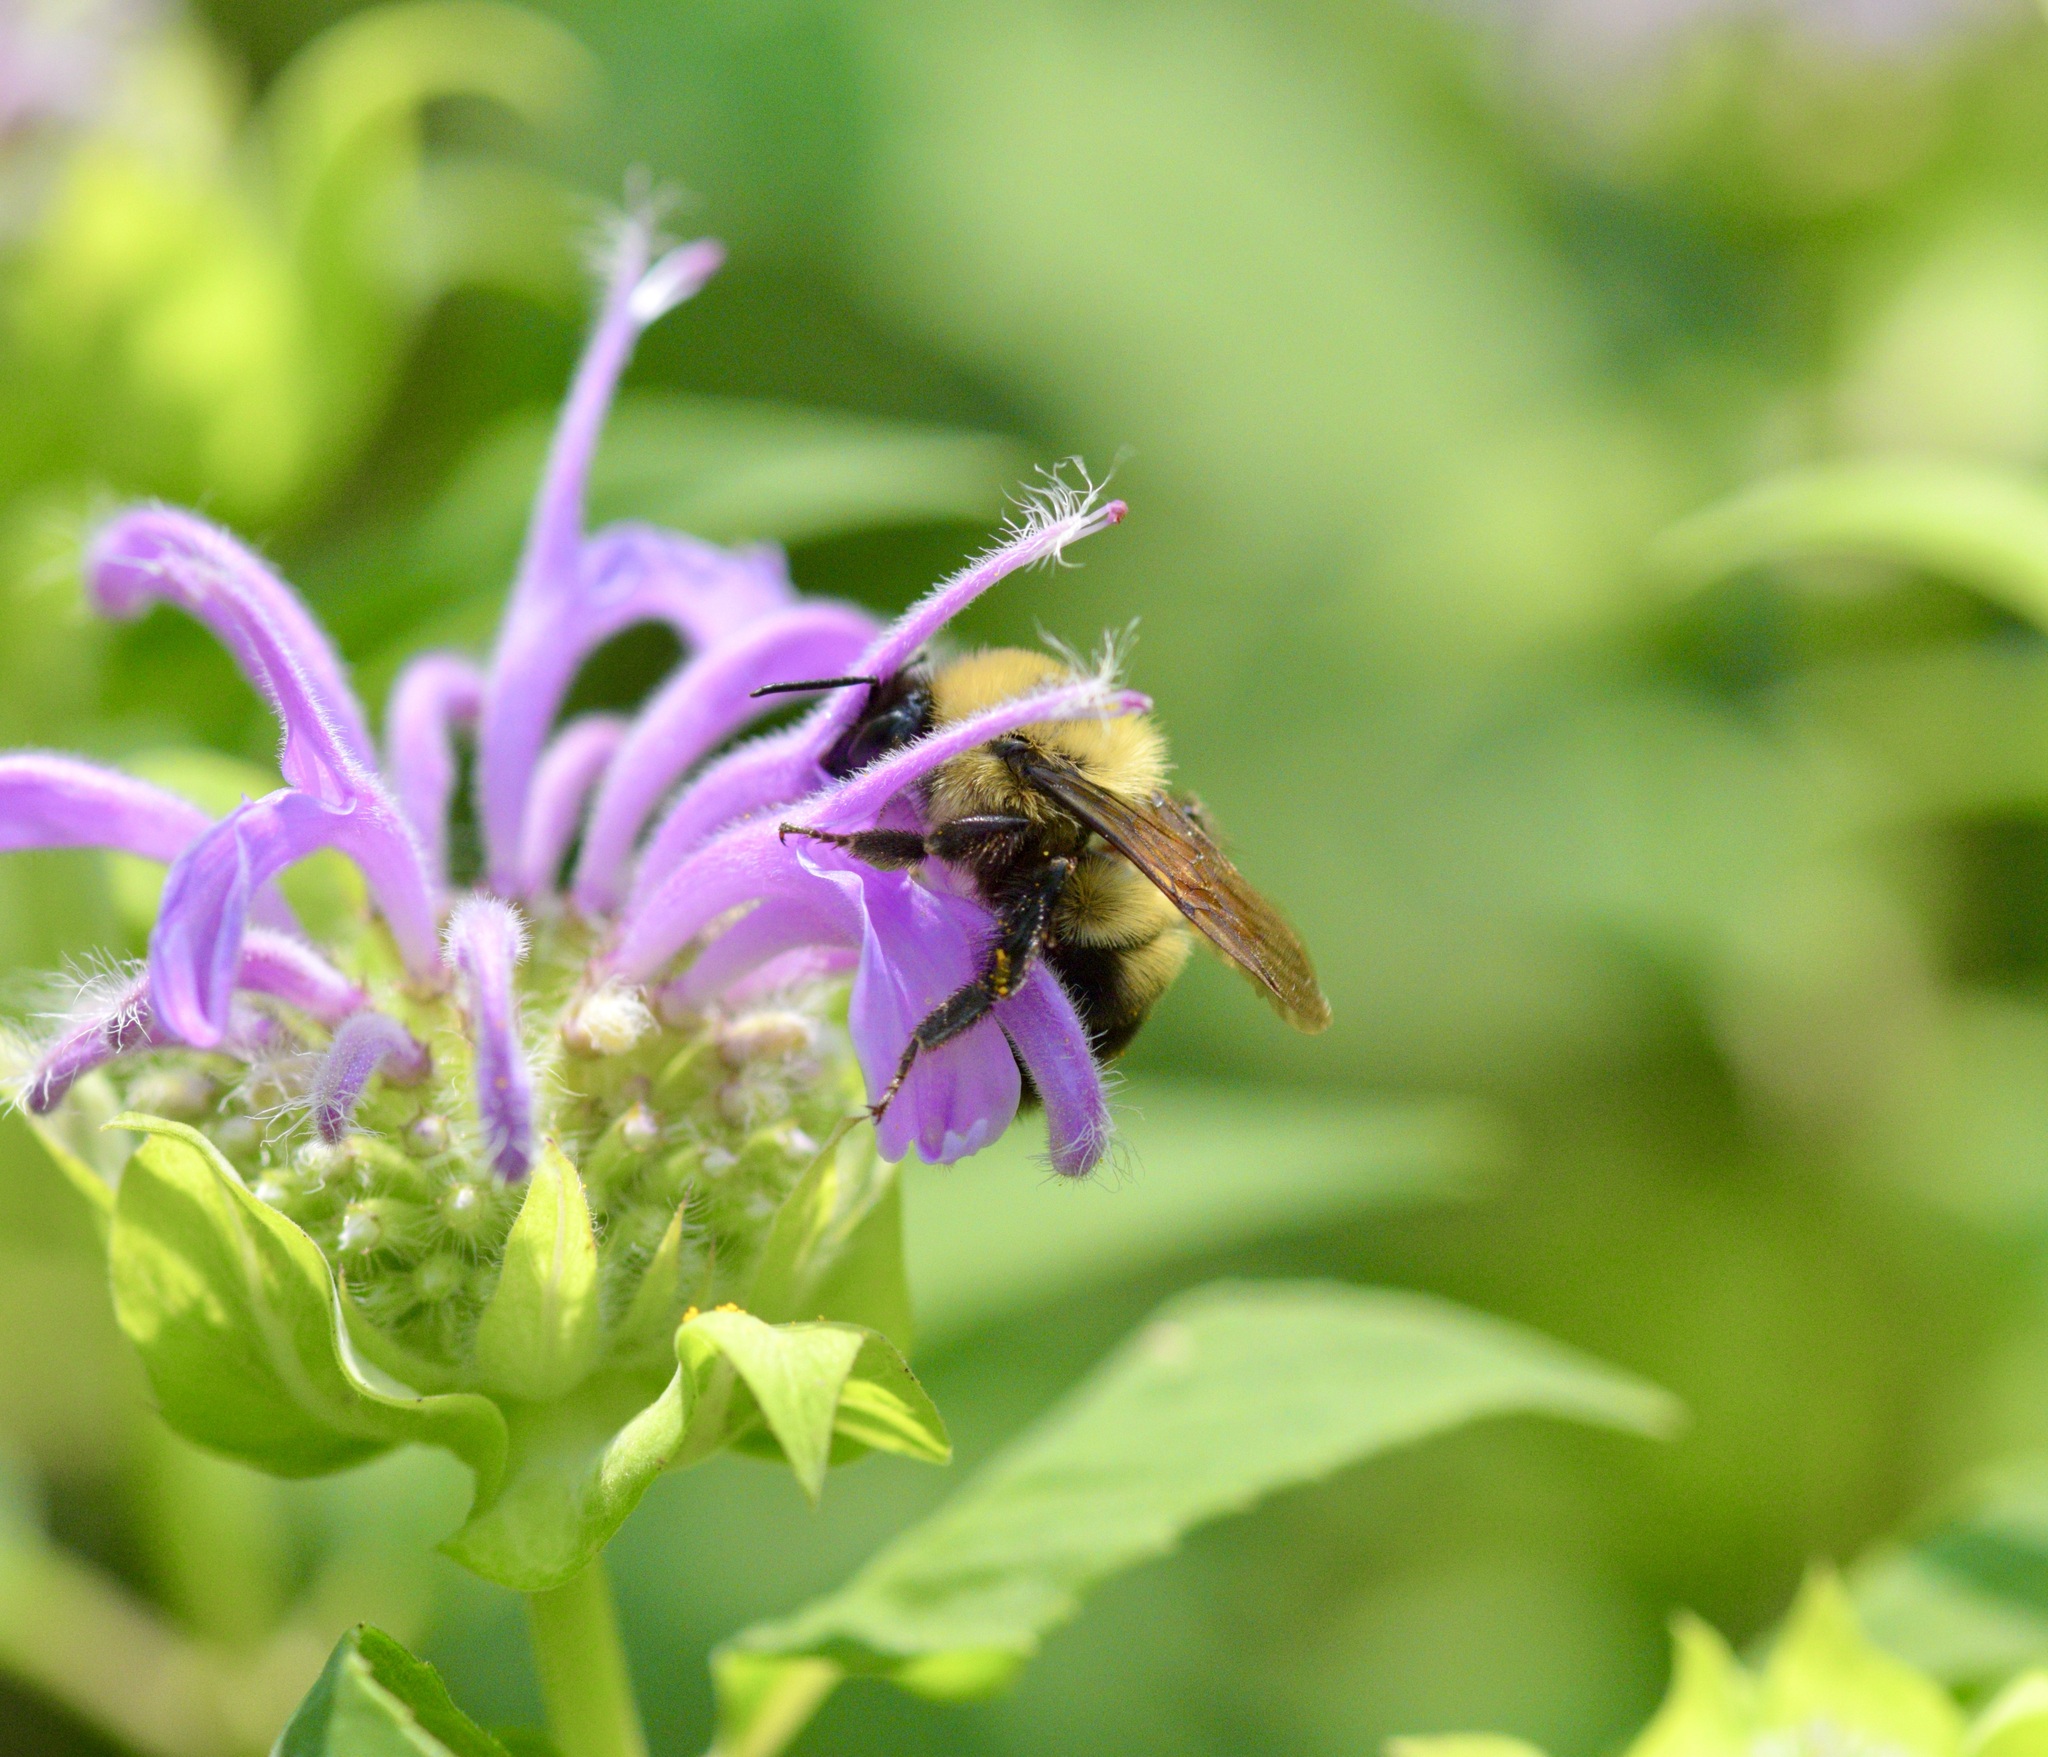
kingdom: Animalia
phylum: Arthropoda
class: Insecta
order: Hymenoptera
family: Apidae
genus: Bombus
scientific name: Bombus bimaculatus
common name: Two-spotted bumble bee
